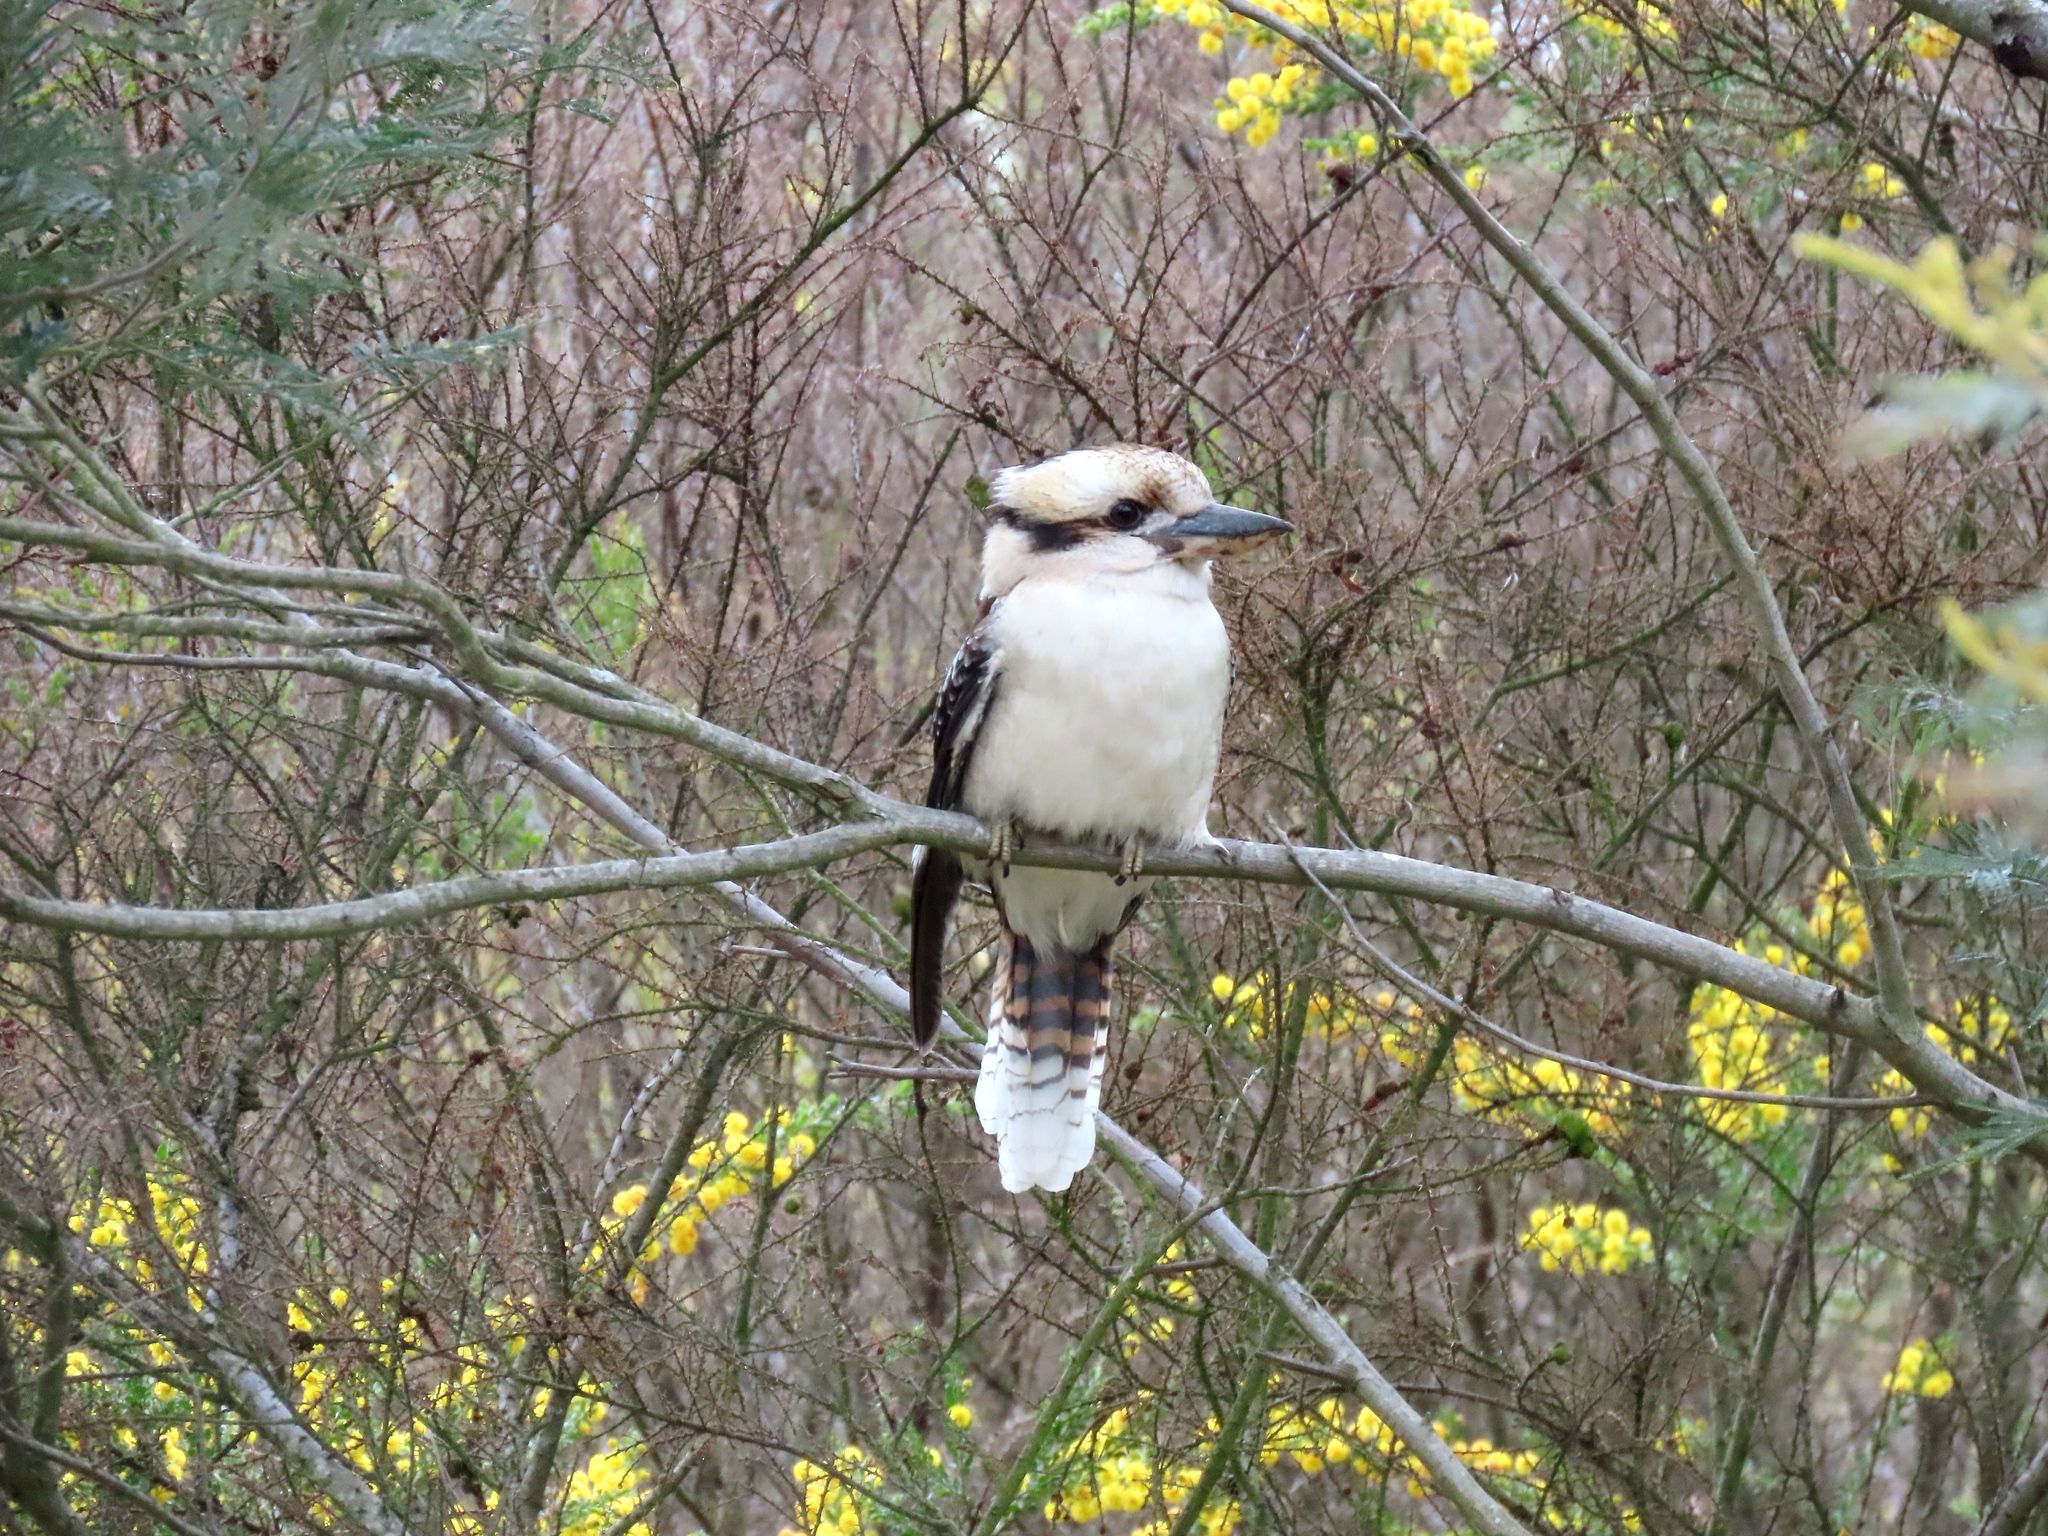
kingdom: Animalia
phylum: Chordata
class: Aves
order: Coraciiformes
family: Alcedinidae
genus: Dacelo
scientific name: Dacelo novaeguineae
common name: Laughing kookaburra
